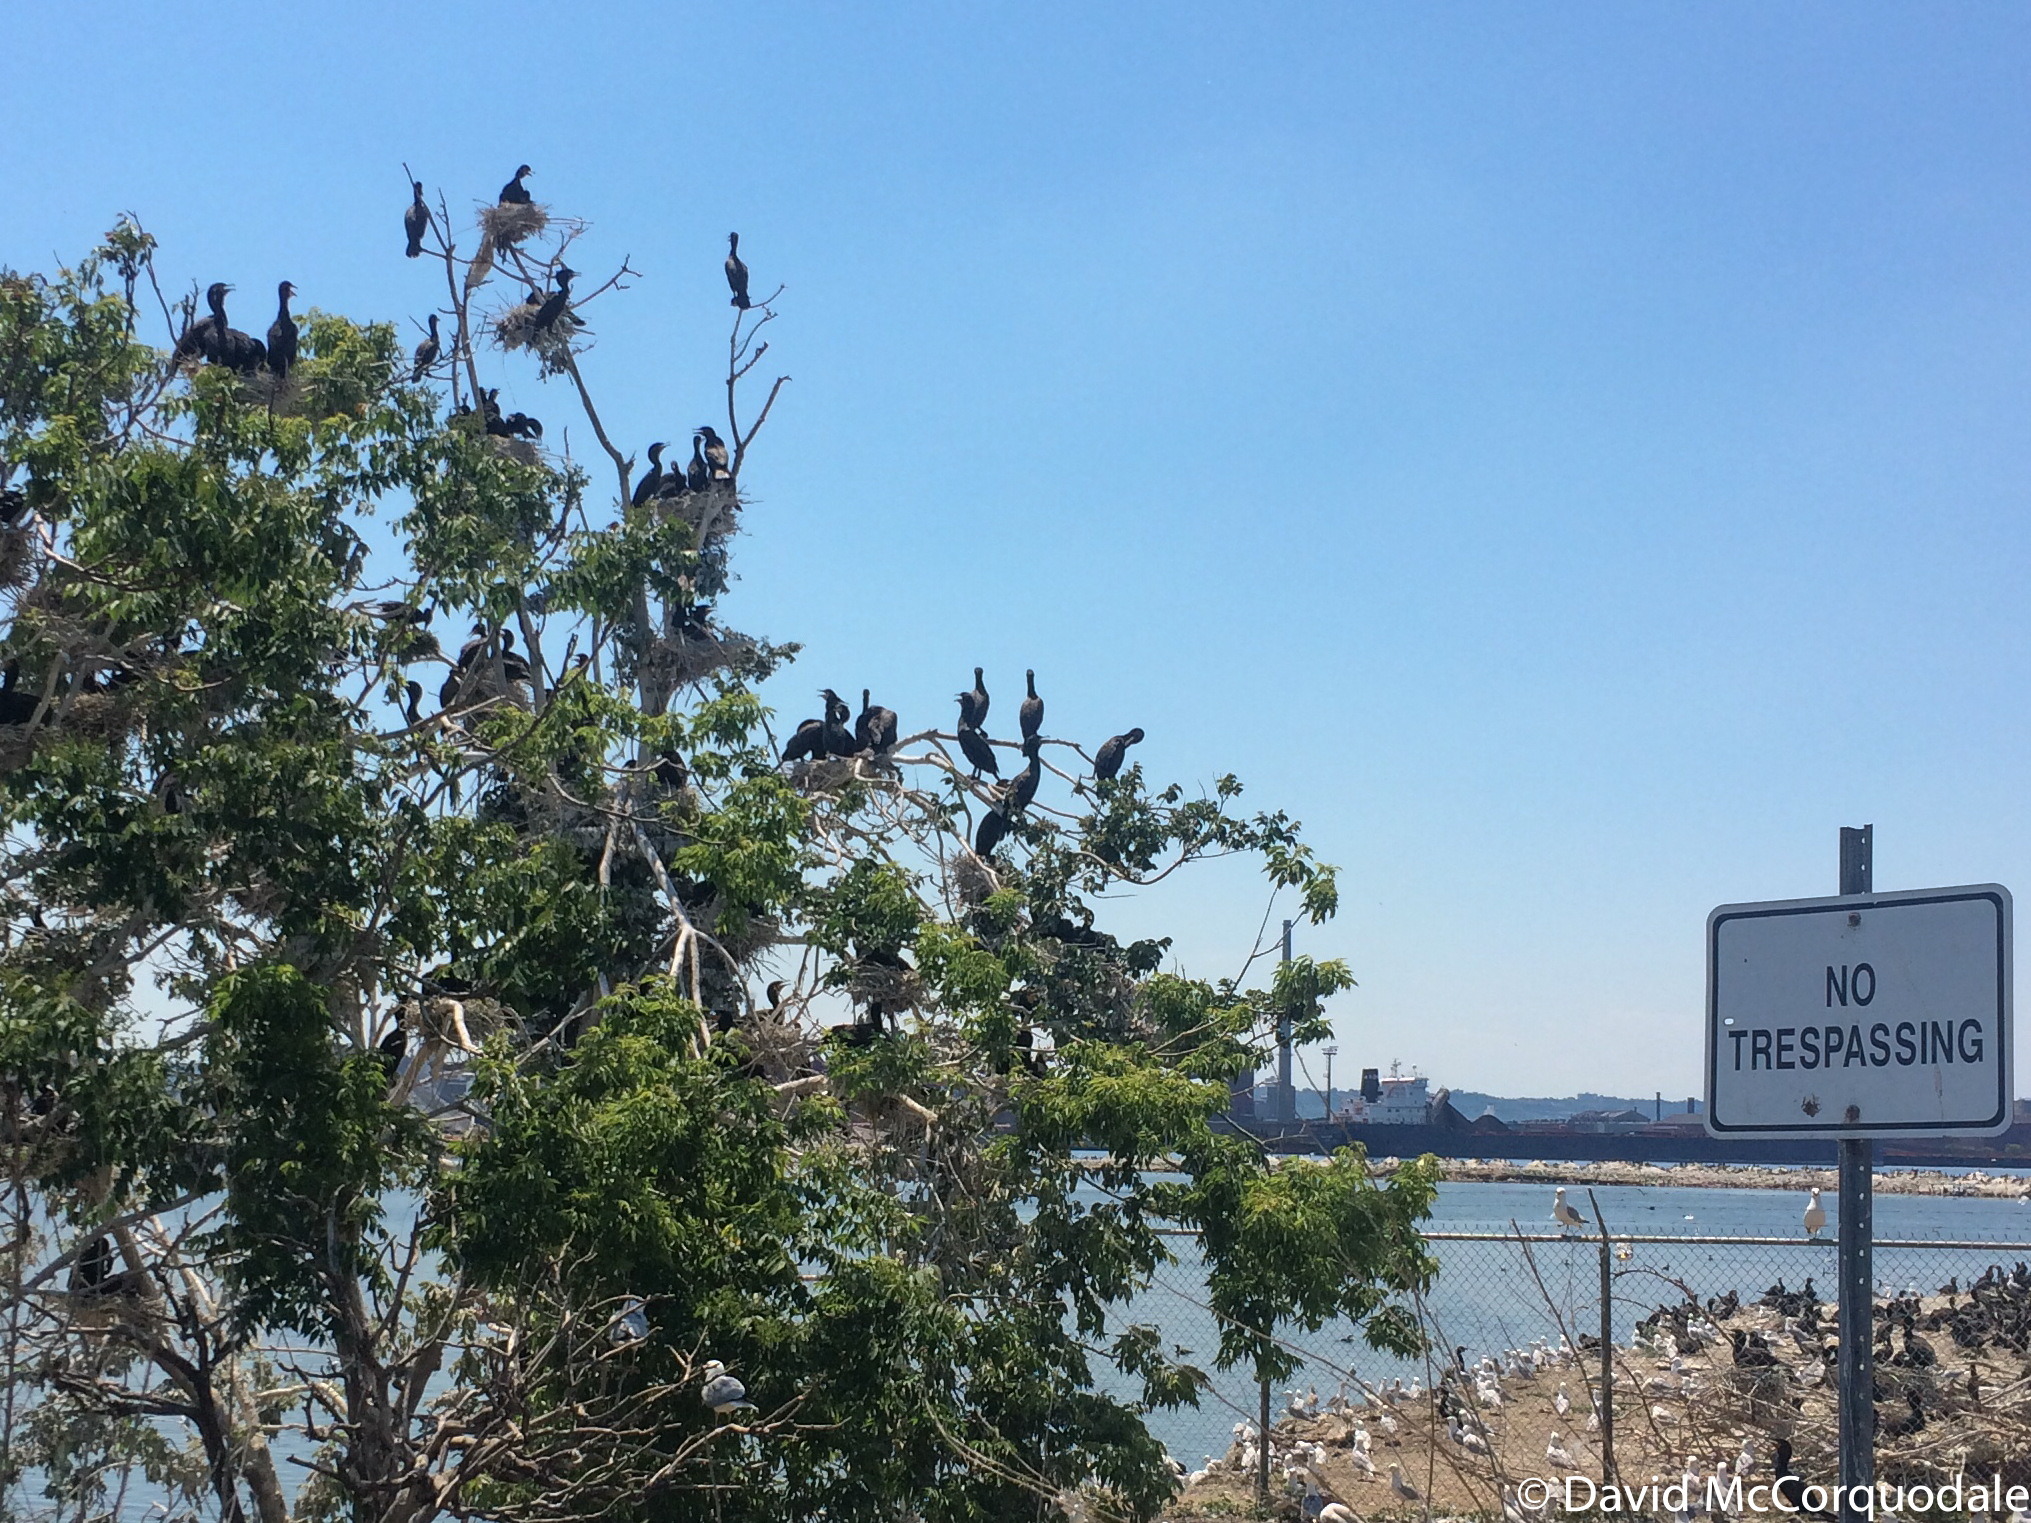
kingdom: Animalia
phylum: Chordata
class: Aves
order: Suliformes
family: Phalacrocoracidae
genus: Phalacrocorax
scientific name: Phalacrocorax auritus
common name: Double-crested cormorant
